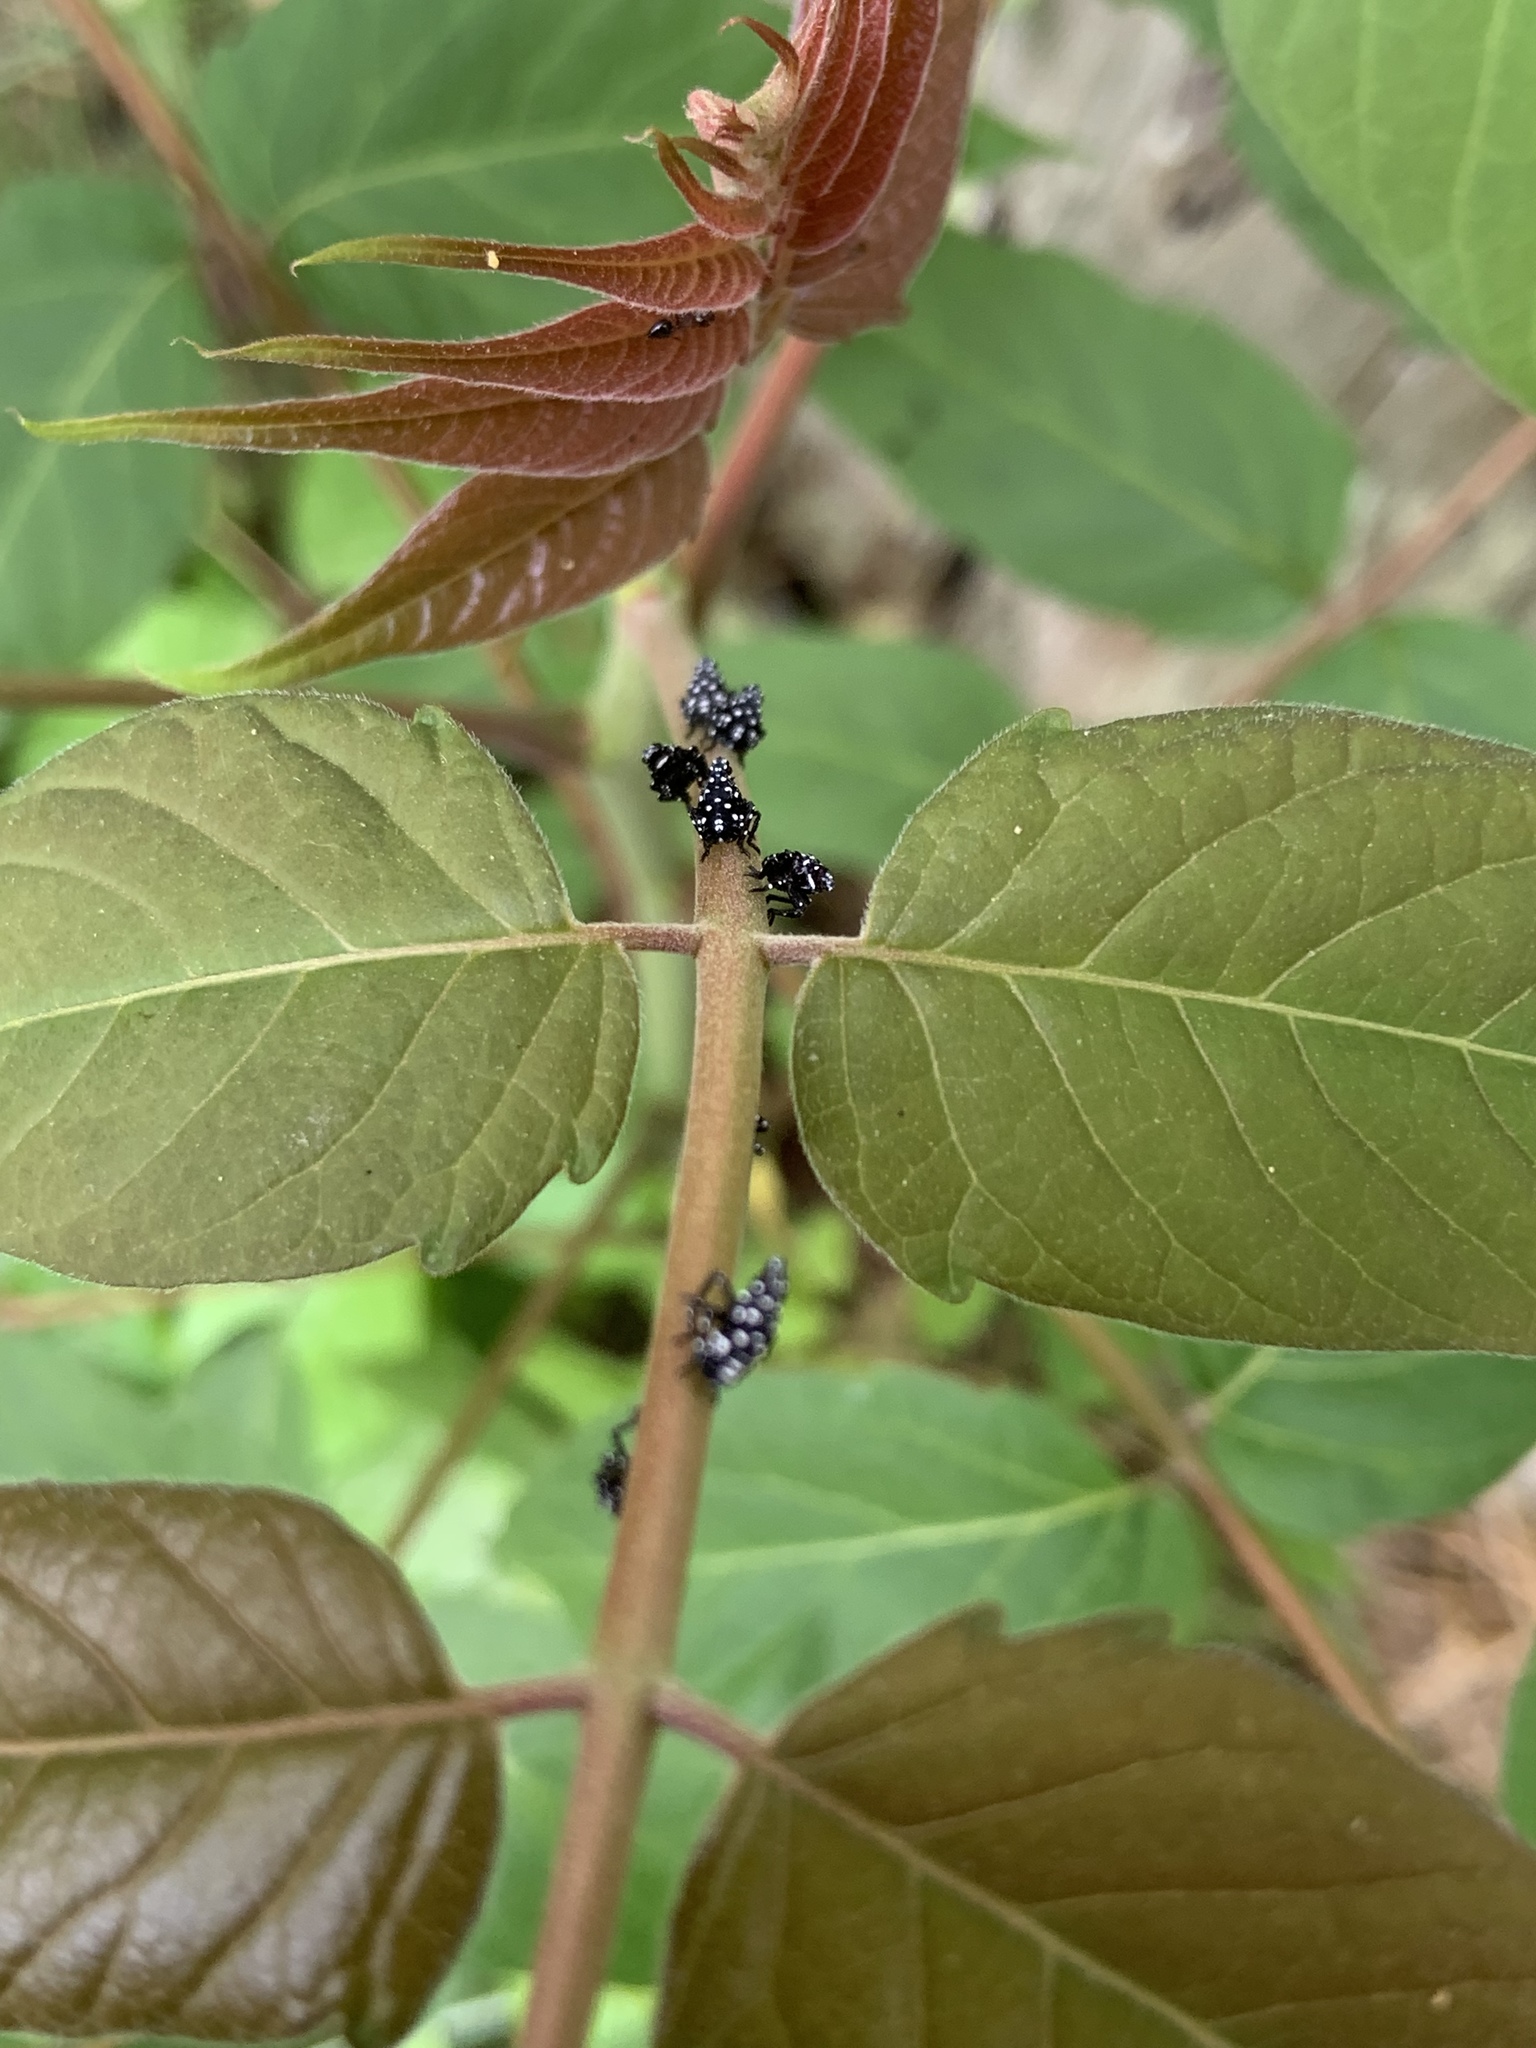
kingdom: Animalia
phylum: Arthropoda
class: Insecta
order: Hemiptera
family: Fulgoridae
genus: Lycorma
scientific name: Lycorma delicatula
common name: Spotted lanternfly
